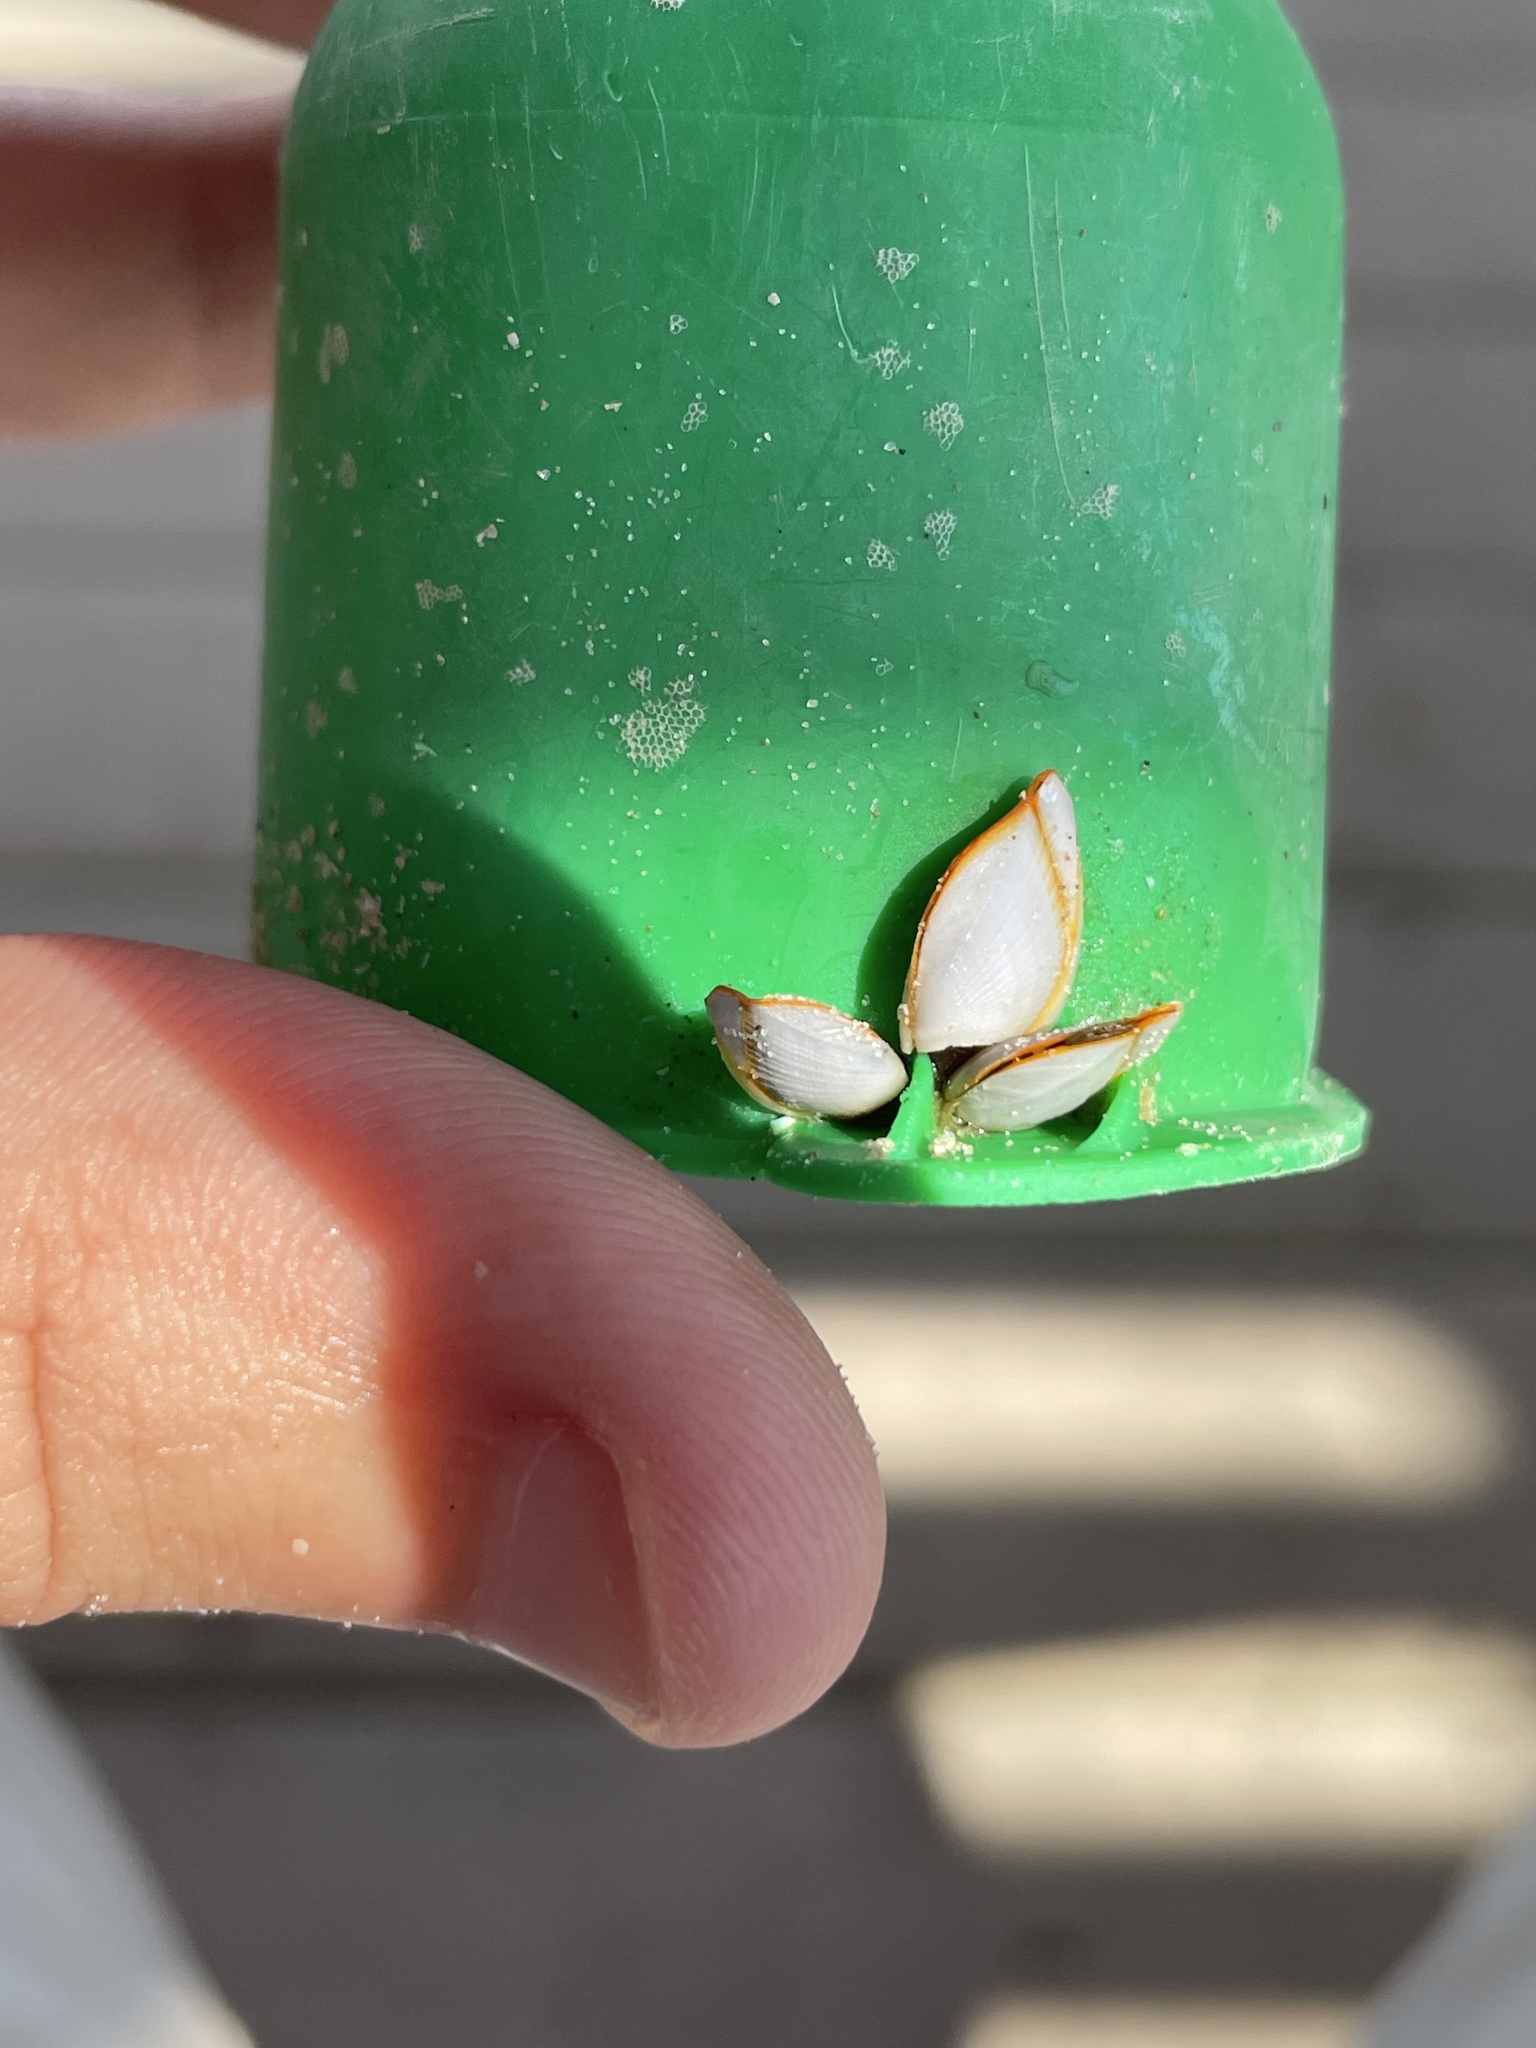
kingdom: Animalia
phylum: Arthropoda
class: Maxillopoda
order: Pedunculata
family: Lepadidae
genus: Lepas
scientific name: Lepas anserifera
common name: Goose barnacle
